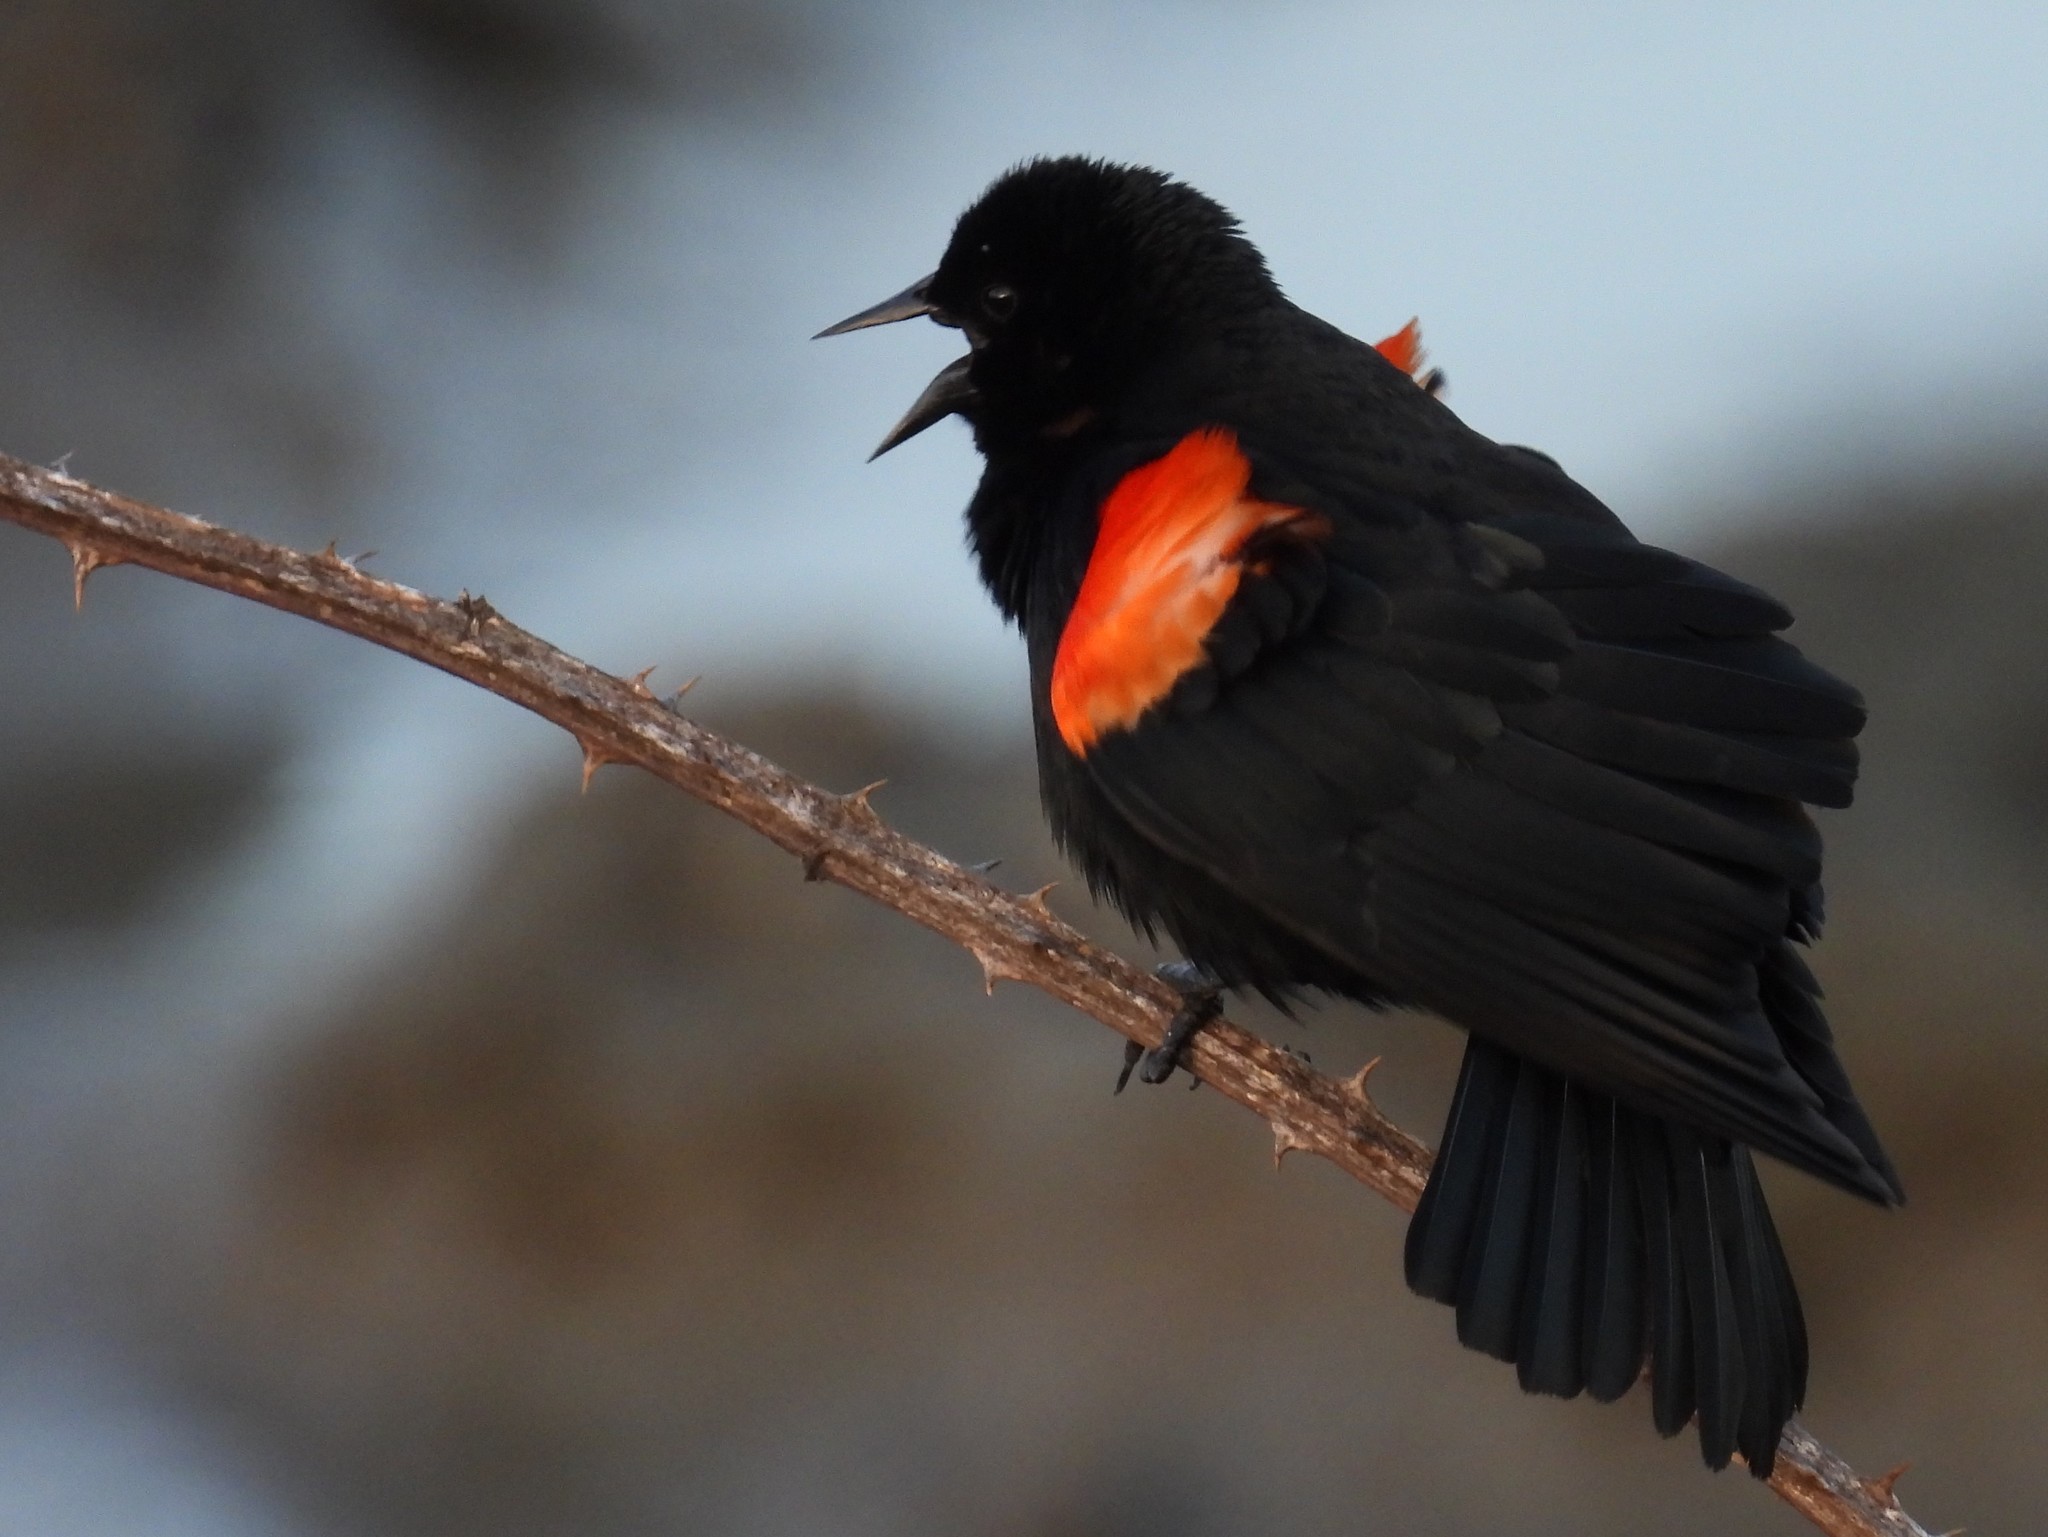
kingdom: Animalia
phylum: Chordata
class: Aves
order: Passeriformes
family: Icteridae
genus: Agelaius
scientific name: Agelaius phoeniceus
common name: Red-winged blackbird
